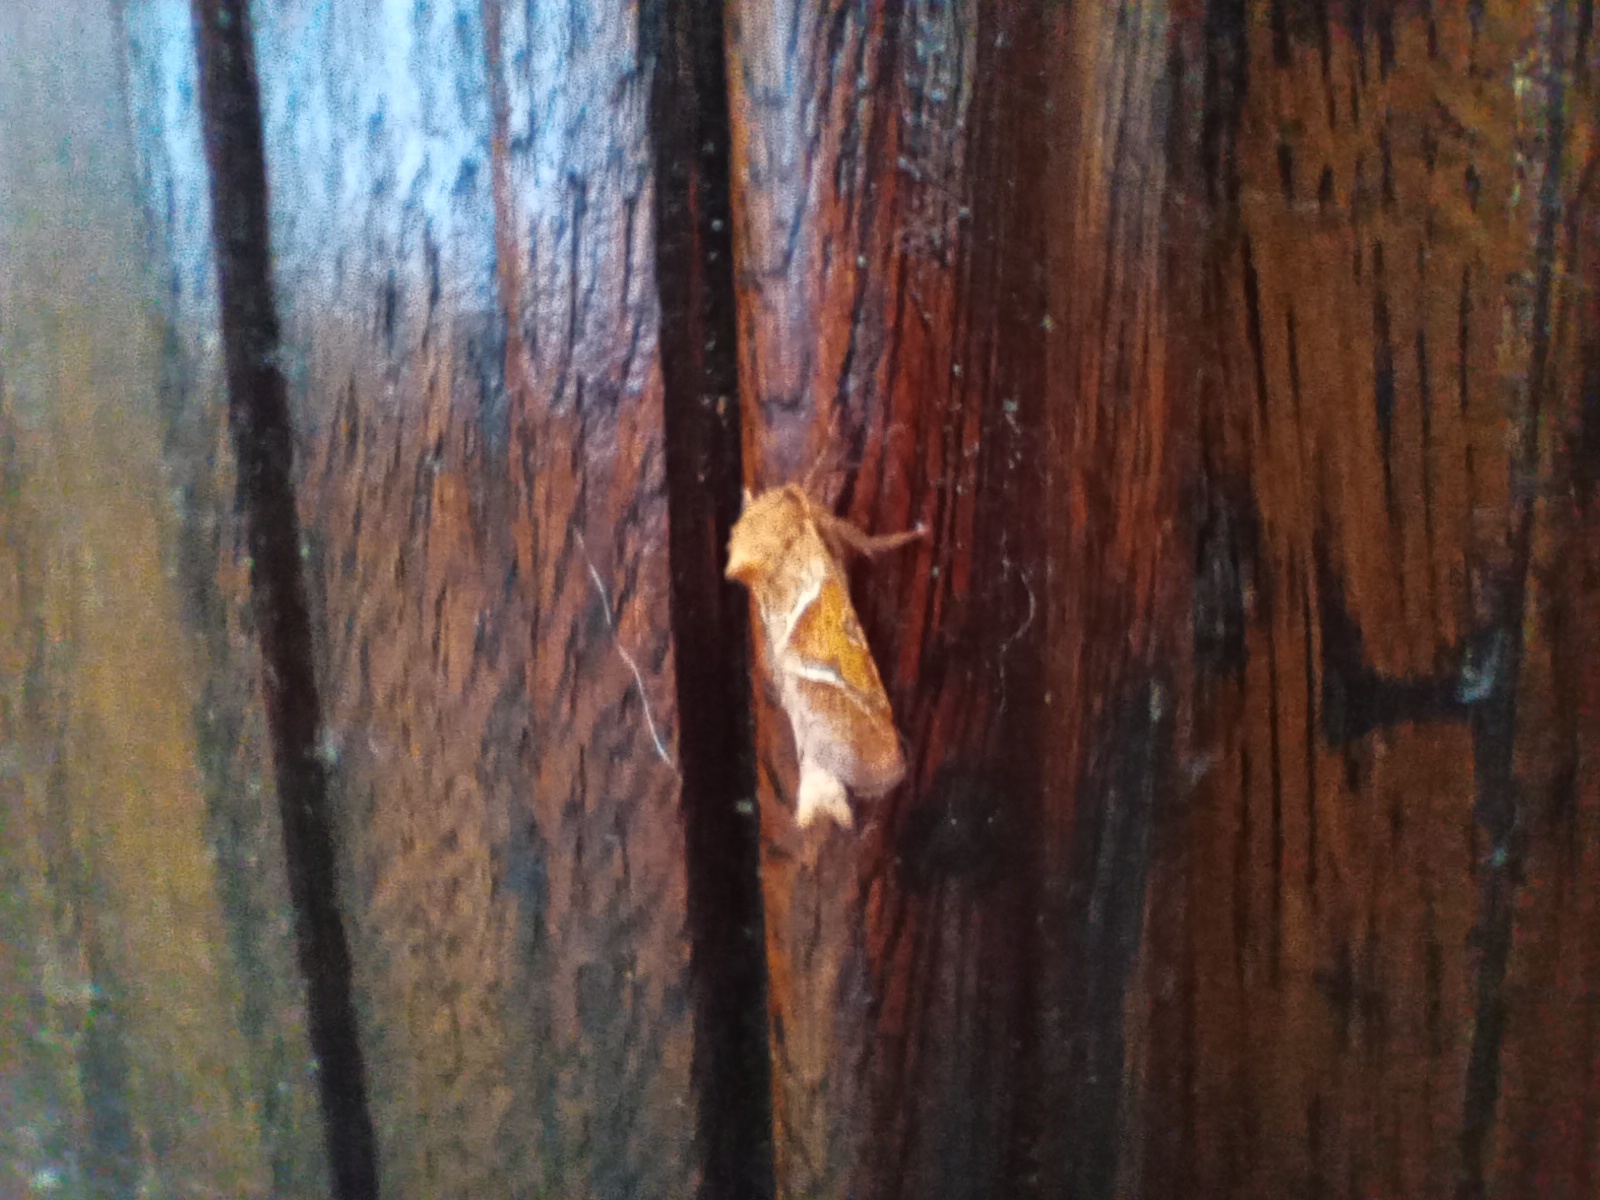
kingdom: Animalia
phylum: Arthropoda
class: Insecta
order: Lepidoptera
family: Hepialidae
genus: Triodia
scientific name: Triodia sylvina
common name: Orange swift
